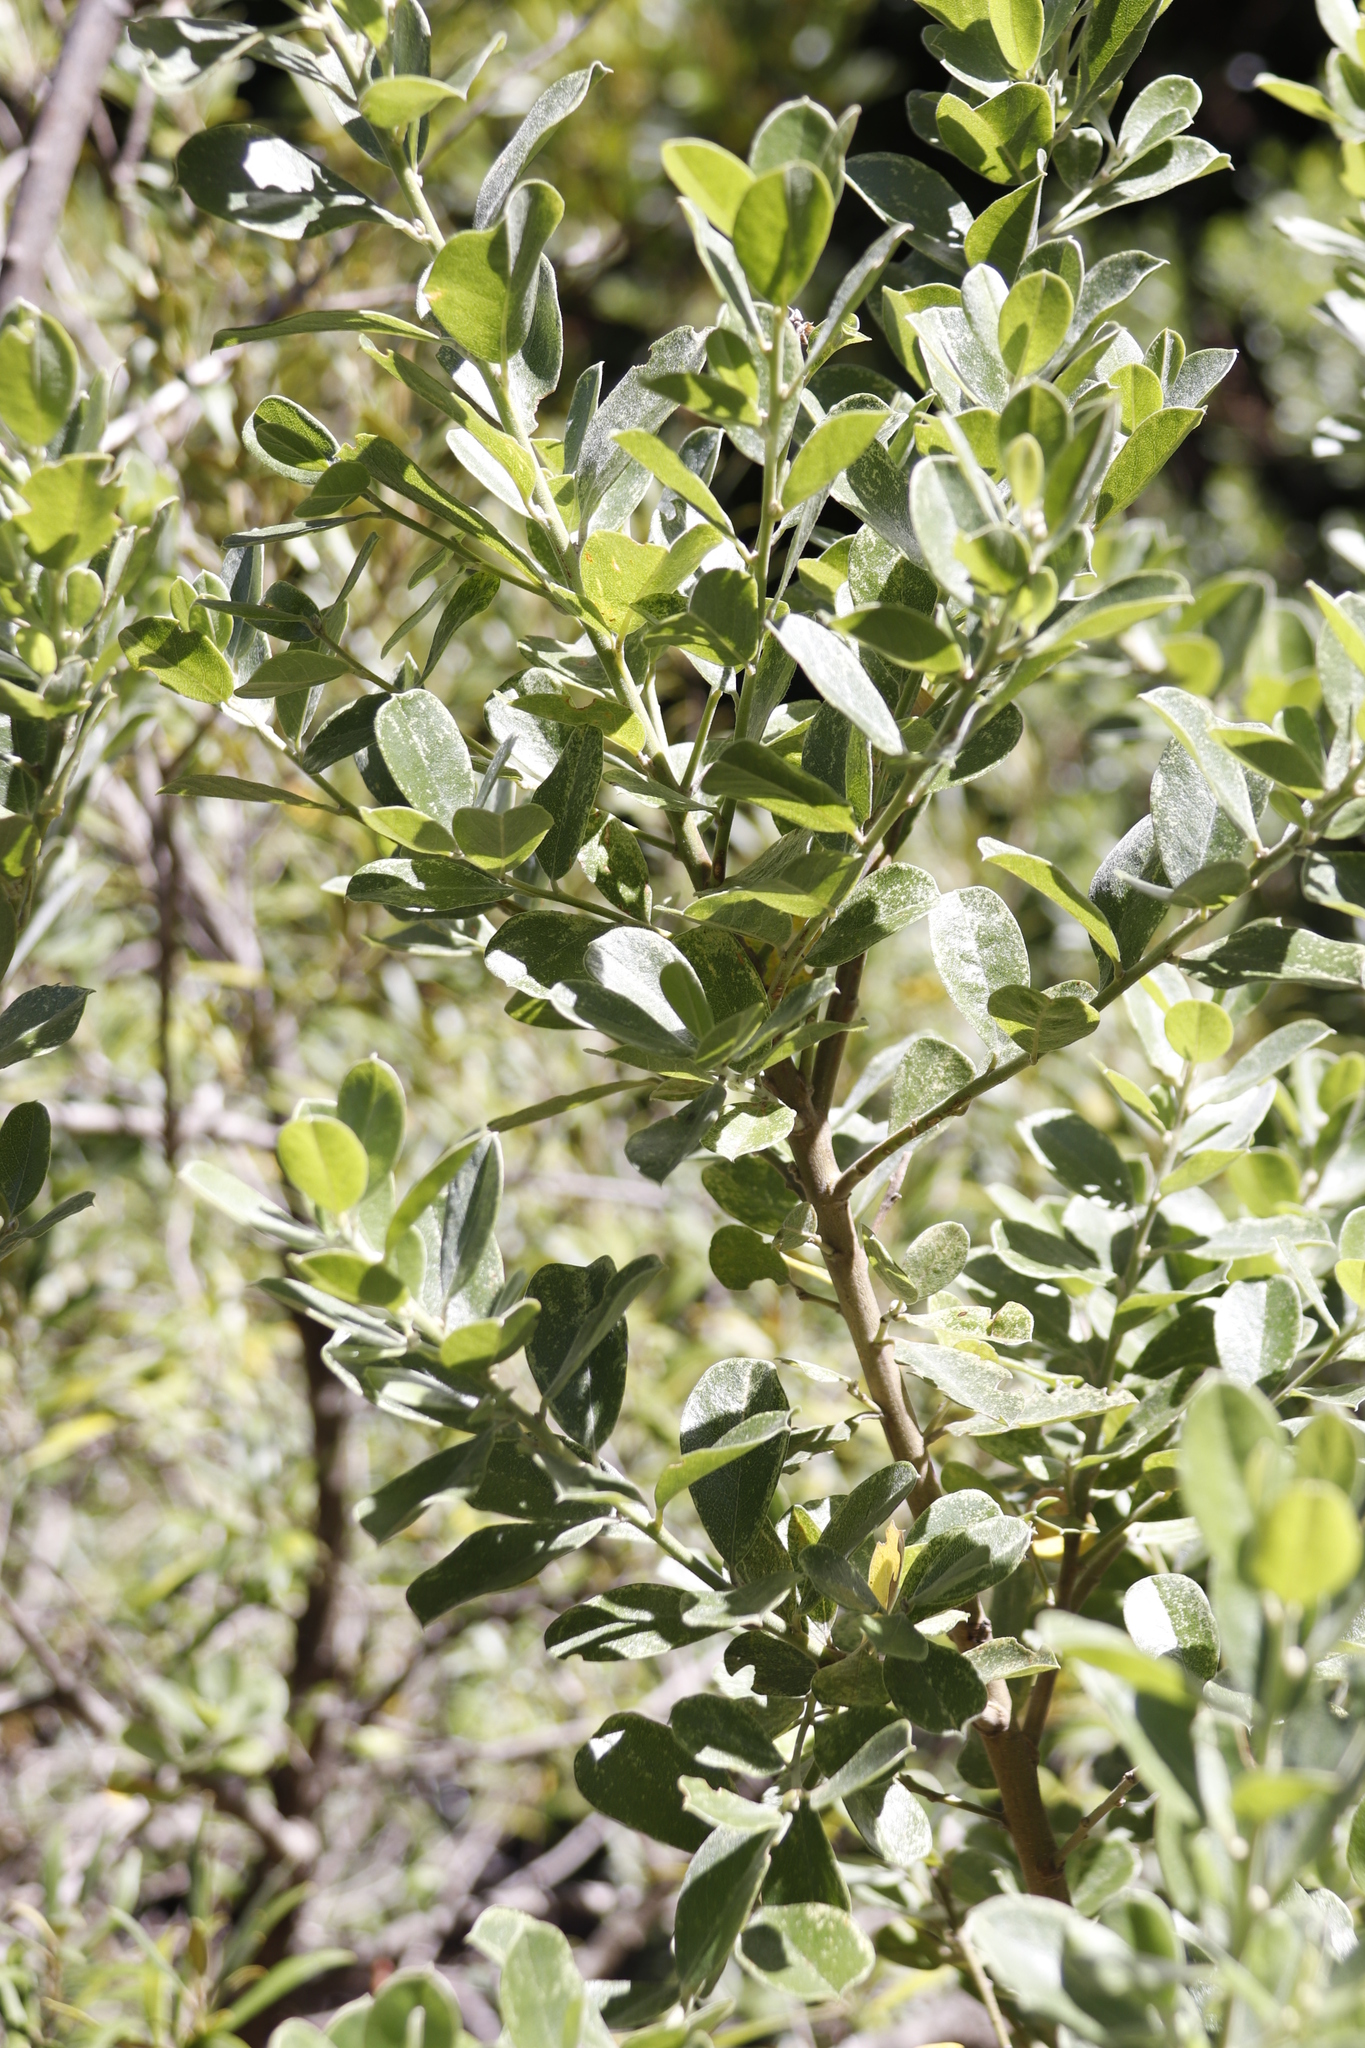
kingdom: Plantae
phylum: Tracheophyta
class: Magnoliopsida
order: Fabales
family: Fabaceae
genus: Podalyria
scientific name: Podalyria calyptrata
